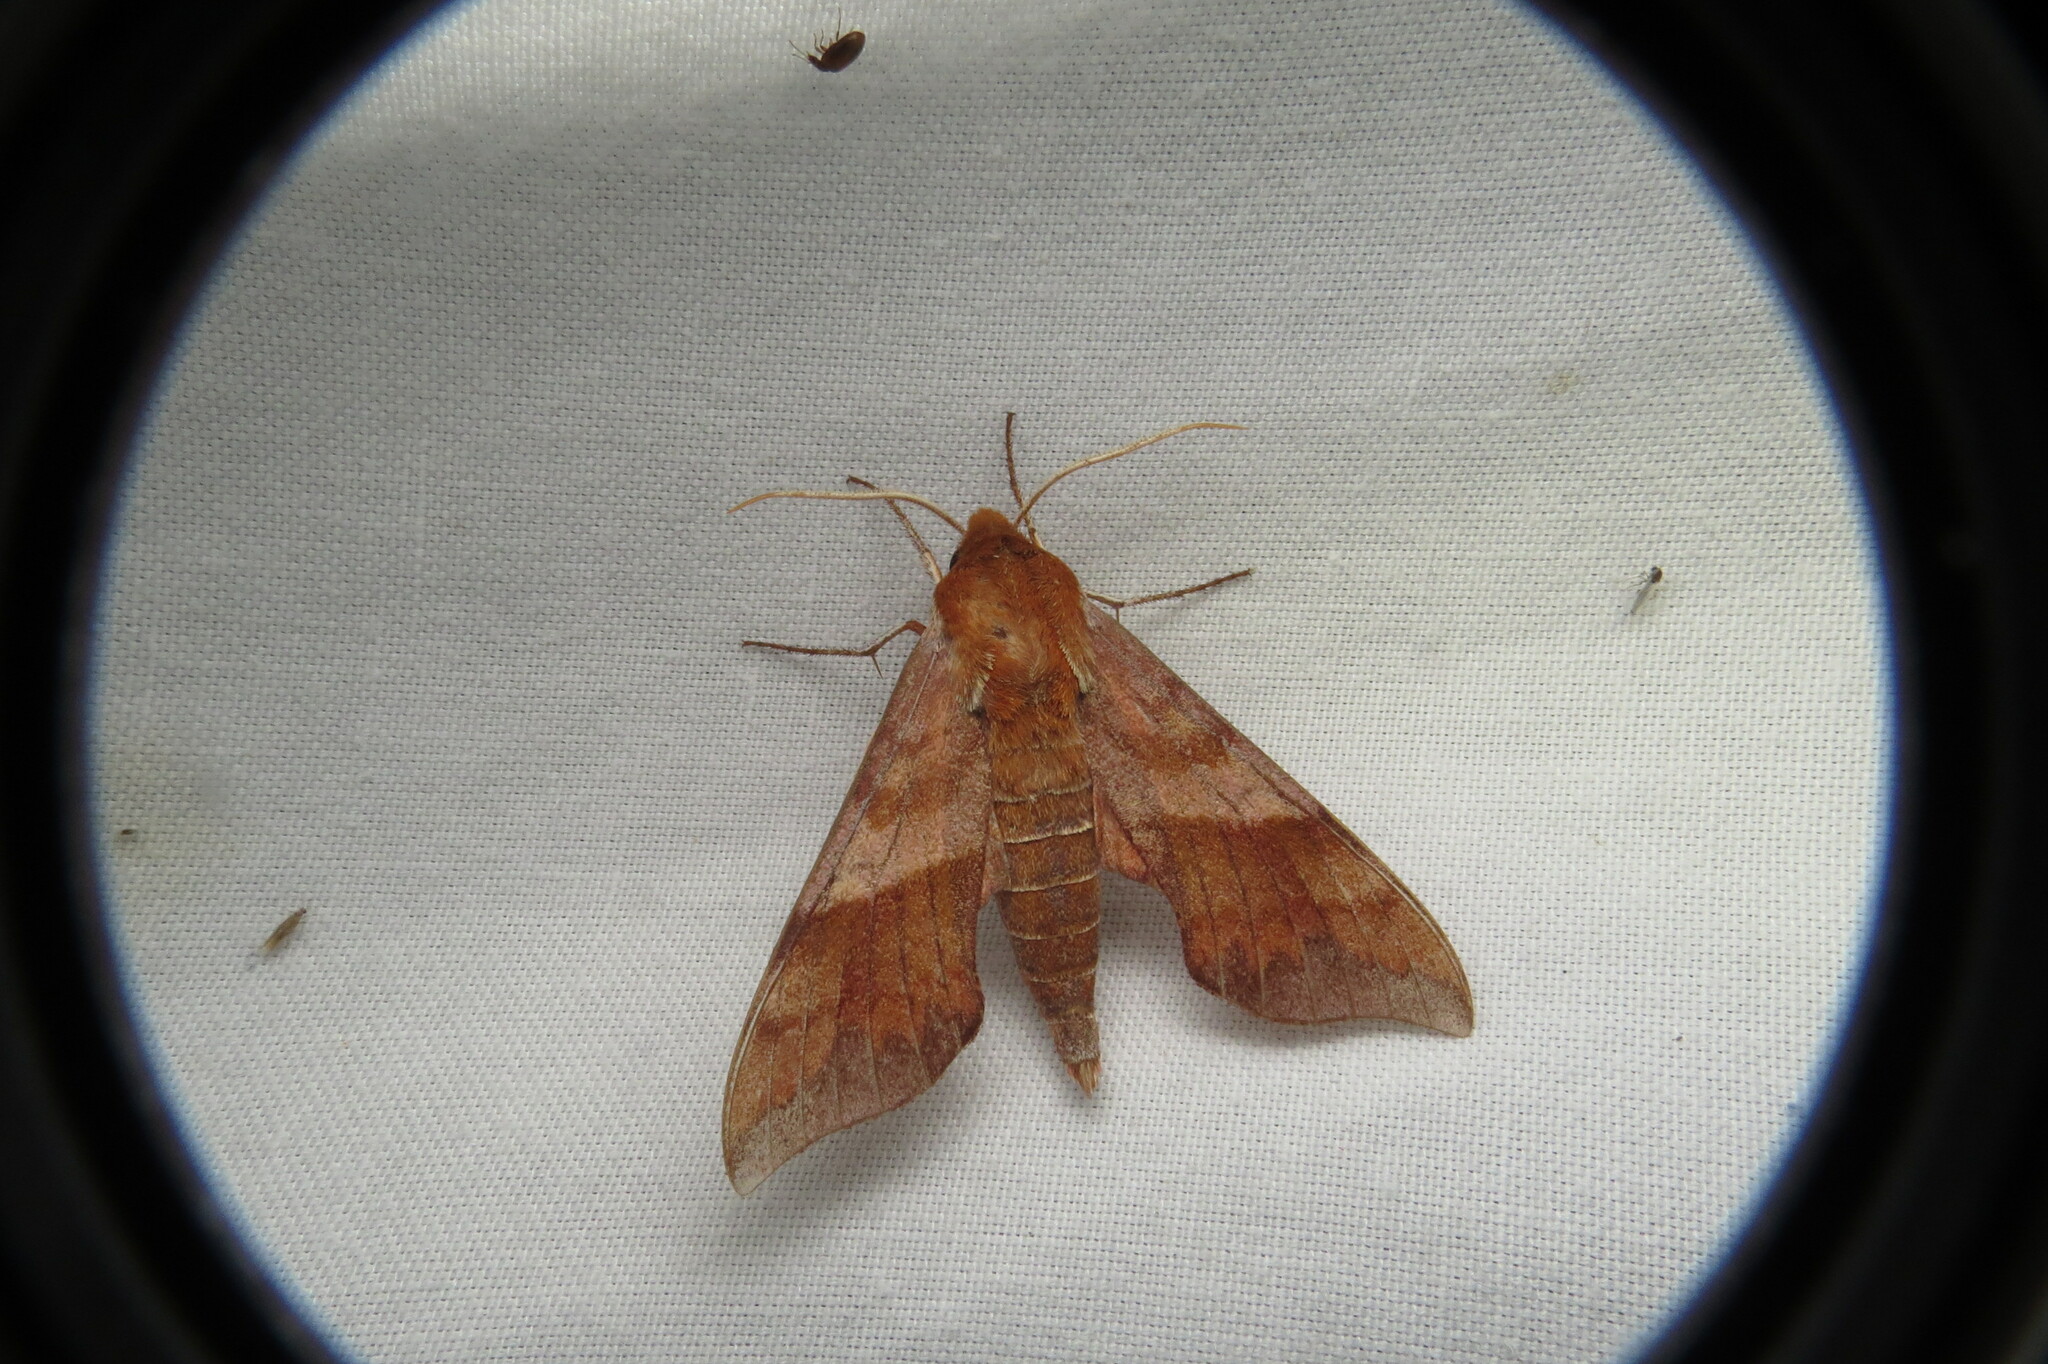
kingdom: Animalia
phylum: Arthropoda
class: Insecta
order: Lepidoptera
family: Sphingidae
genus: Darapsa
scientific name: Darapsa choerilus
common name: Azalea sphinx
